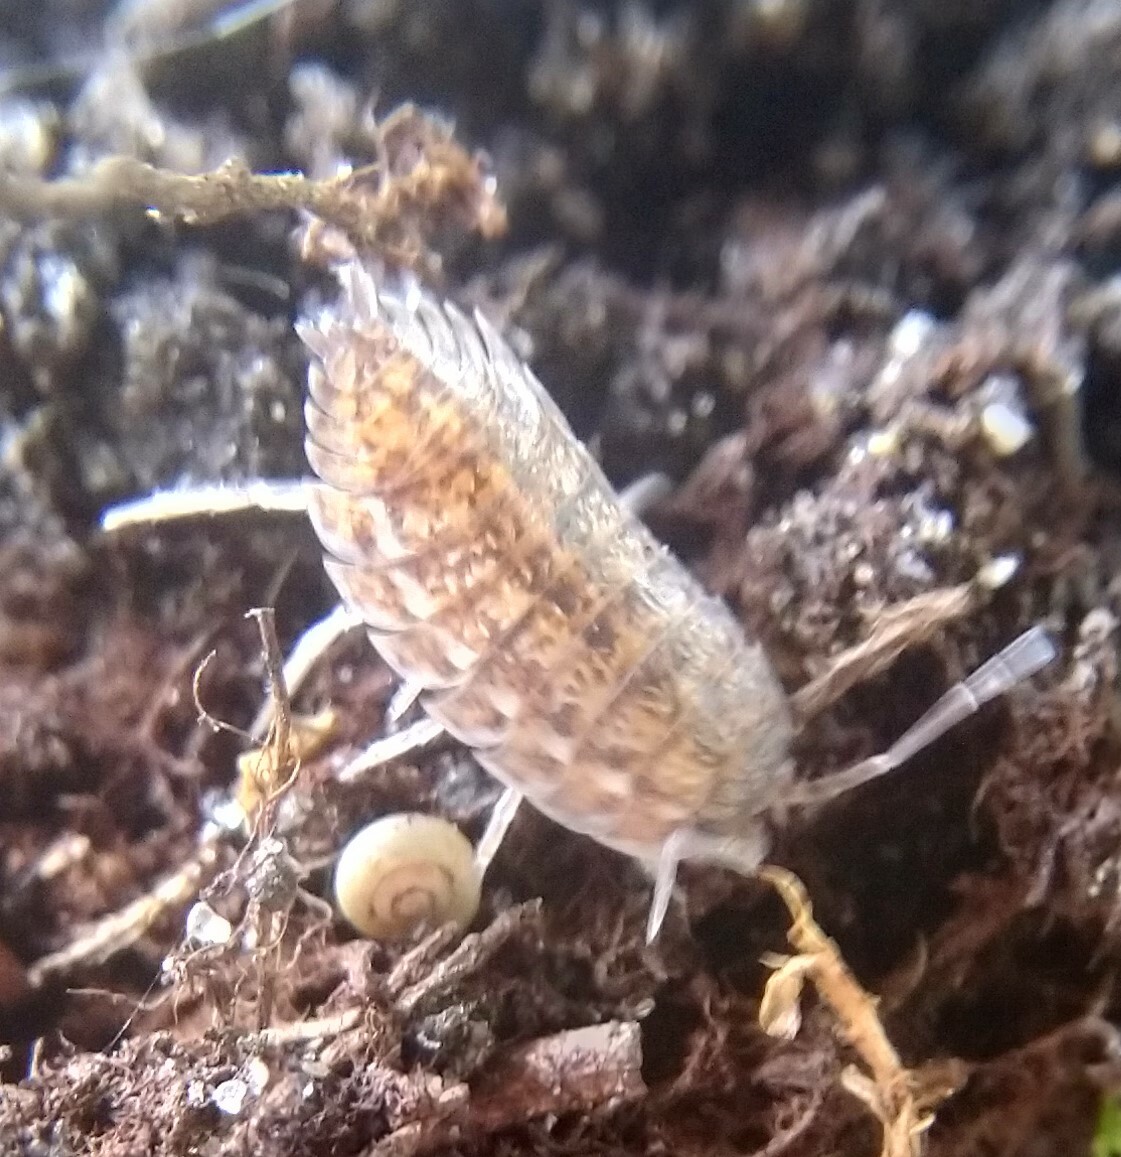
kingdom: Animalia
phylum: Arthropoda
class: Malacostraca
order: Isopoda
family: Trachelipodidae
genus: Trachelipus
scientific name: Trachelipus rathkii
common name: Isopod
